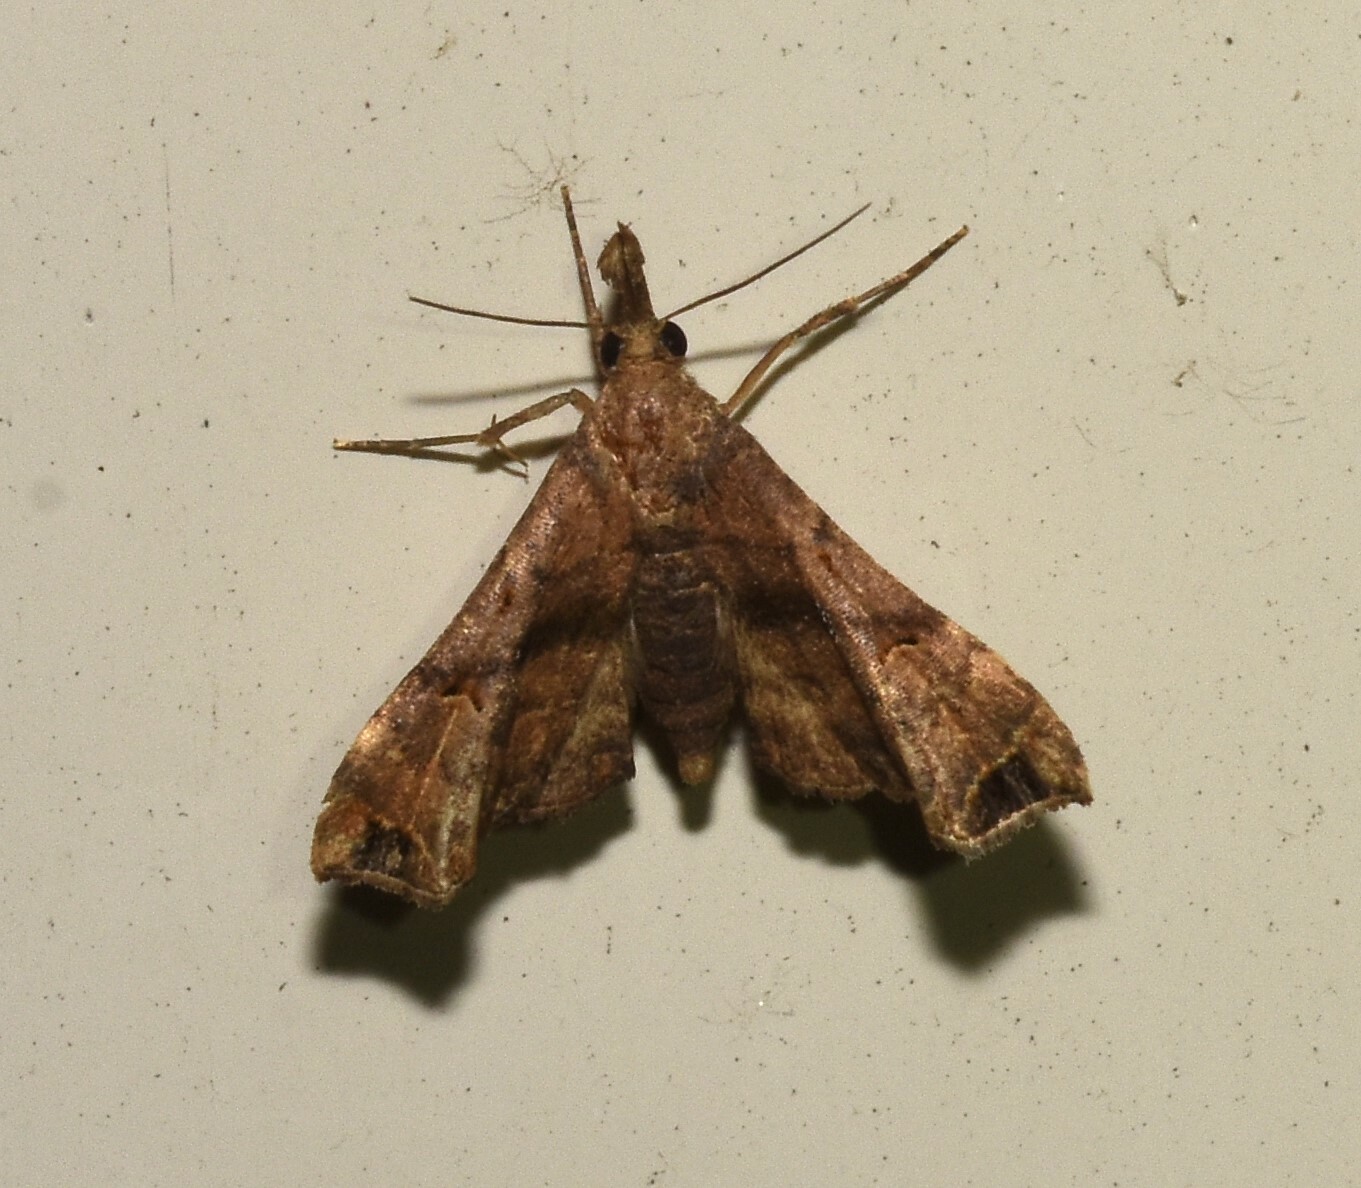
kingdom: Animalia
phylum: Arthropoda
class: Insecta
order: Lepidoptera
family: Erebidae
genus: Palthis
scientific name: Palthis asopialis
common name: Faint-spotted palthis moth
